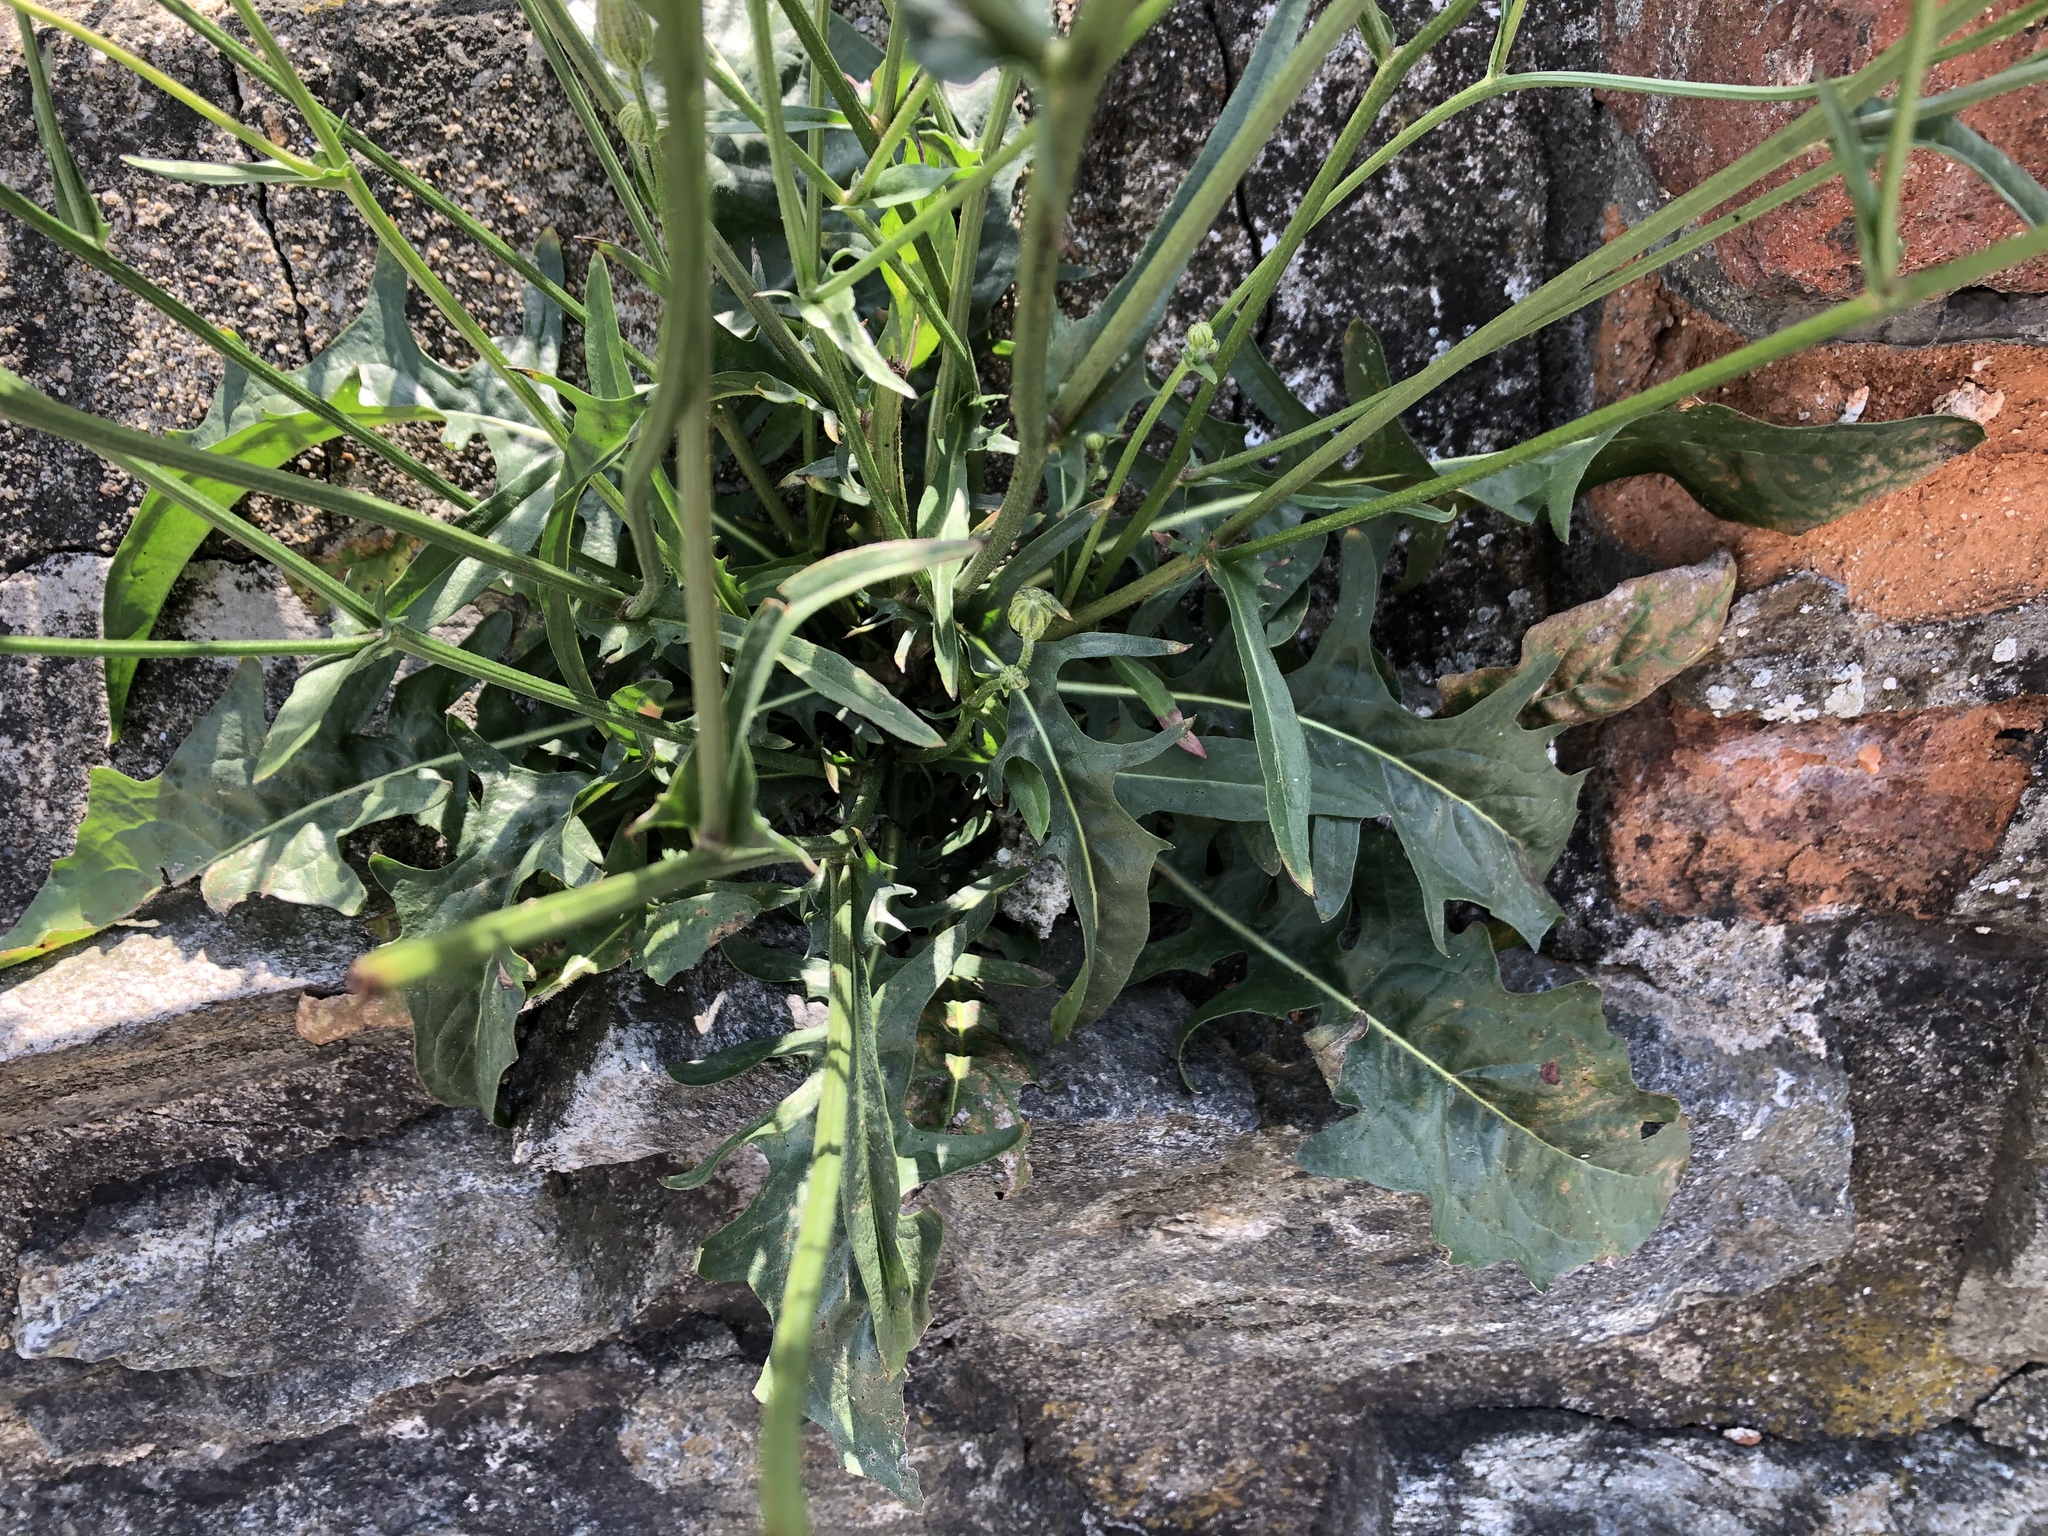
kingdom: Plantae
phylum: Tracheophyta
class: Magnoliopsida
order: Asterales
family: Asteraceae
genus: Crepis
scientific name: Crepis biennis
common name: Rough hawk's-beard
